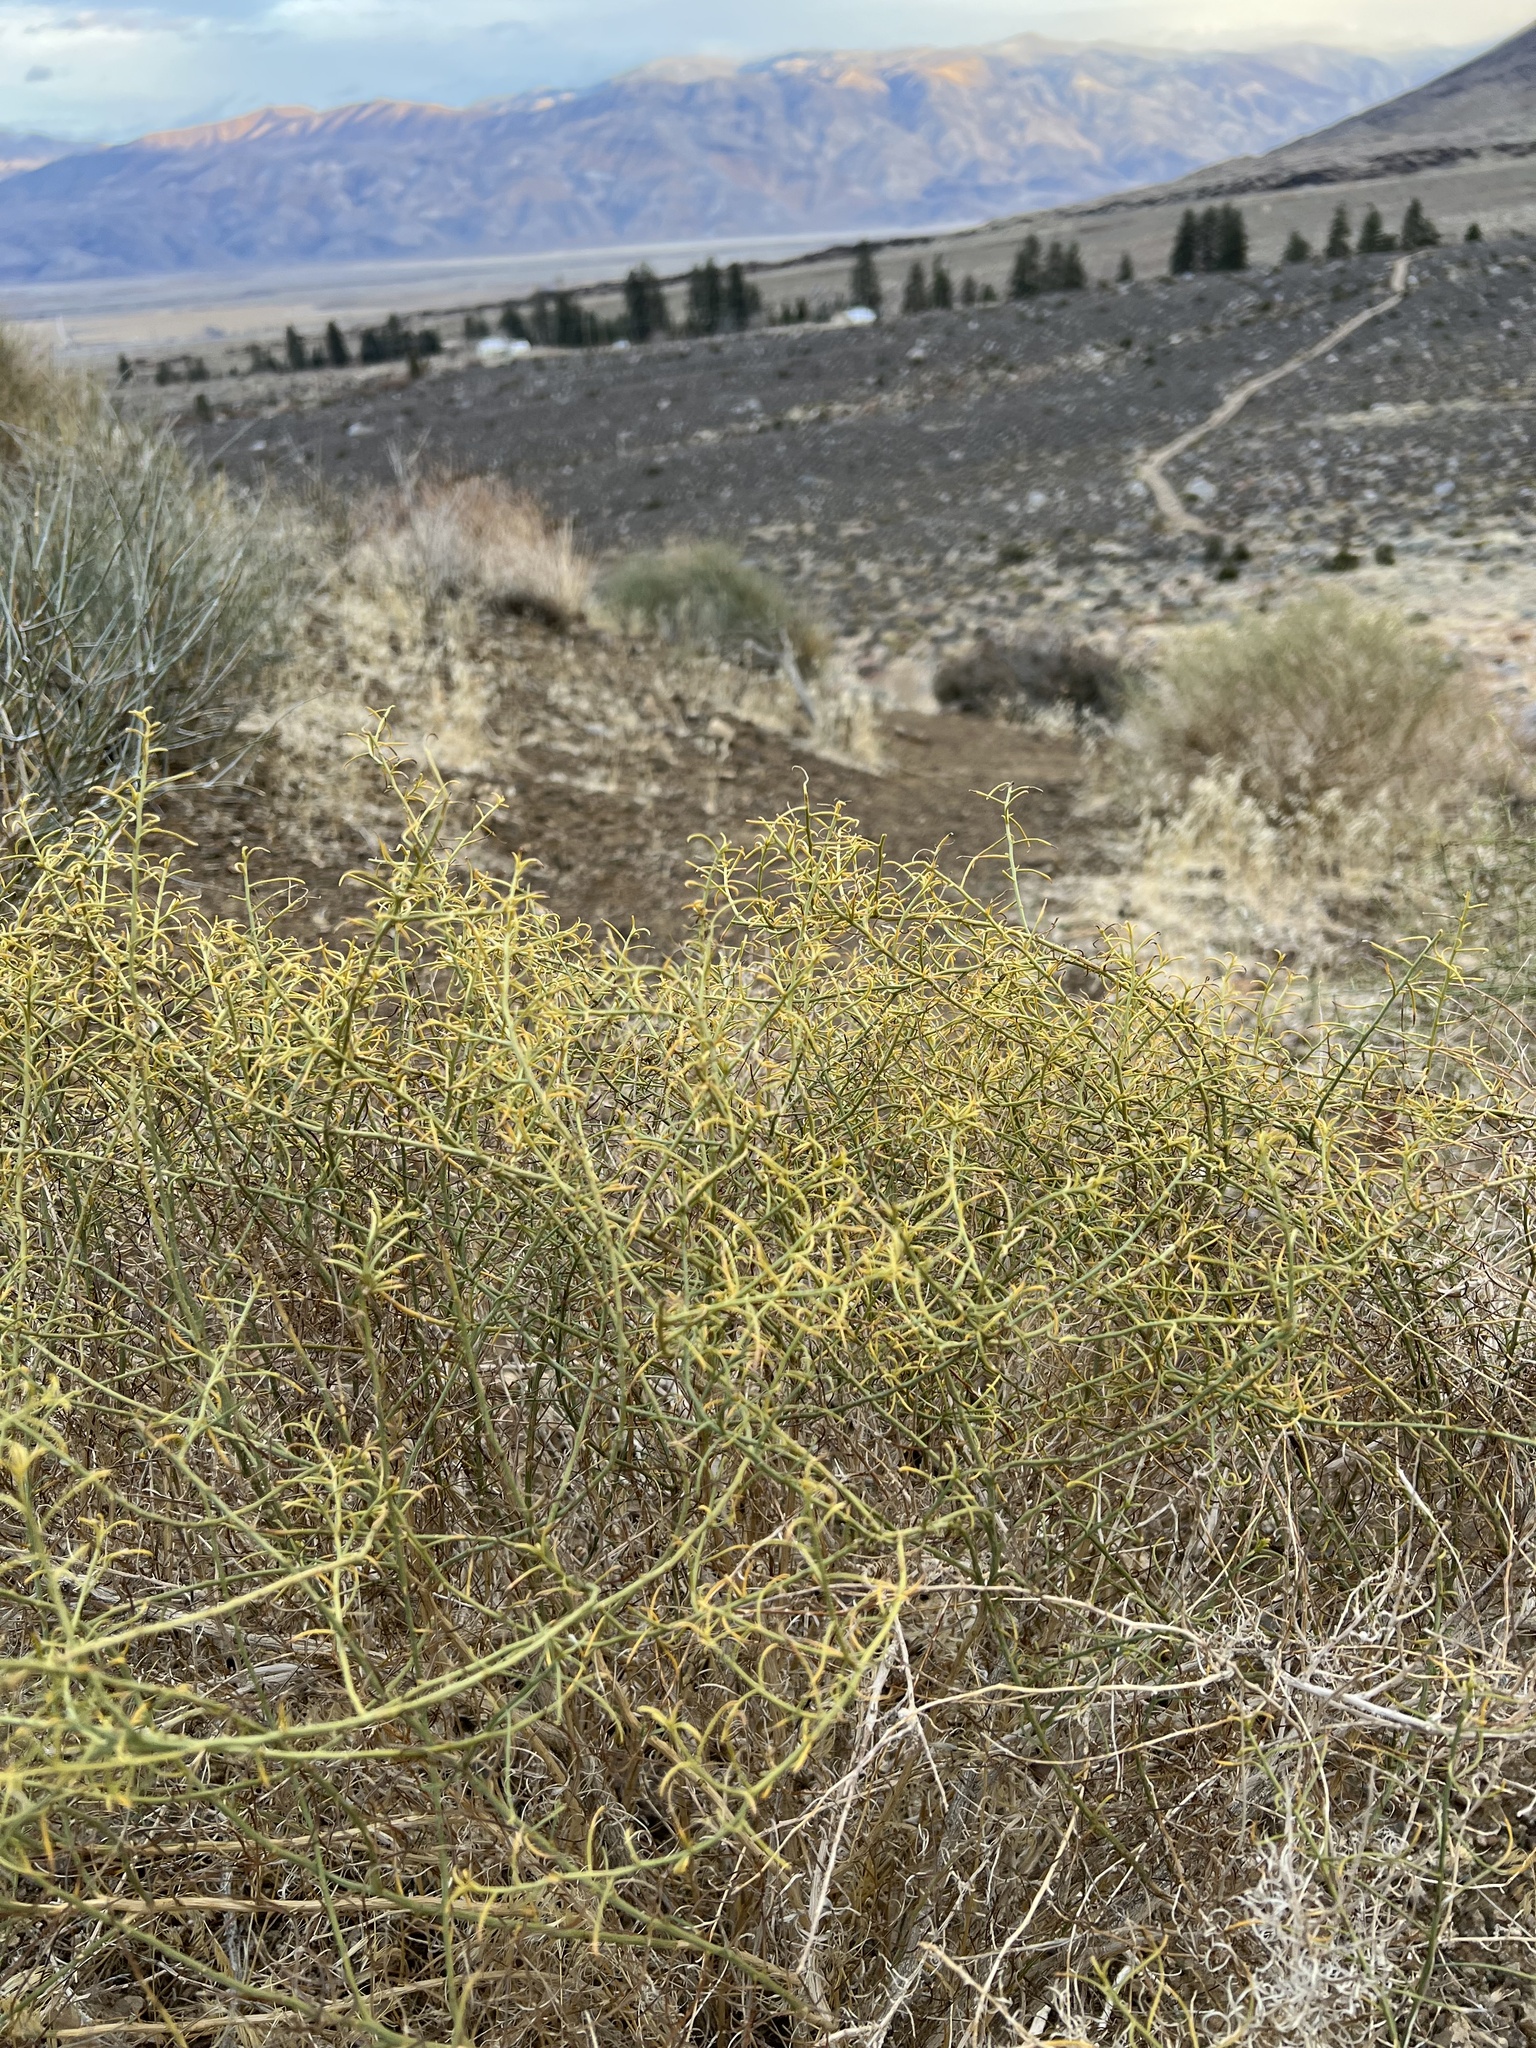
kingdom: Plantae
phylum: Tracheophyta
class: Magnoliopsida
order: Asterales
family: Asteraceae
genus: Ambrosia
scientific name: Ambrosia salsola
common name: Burrobrush
